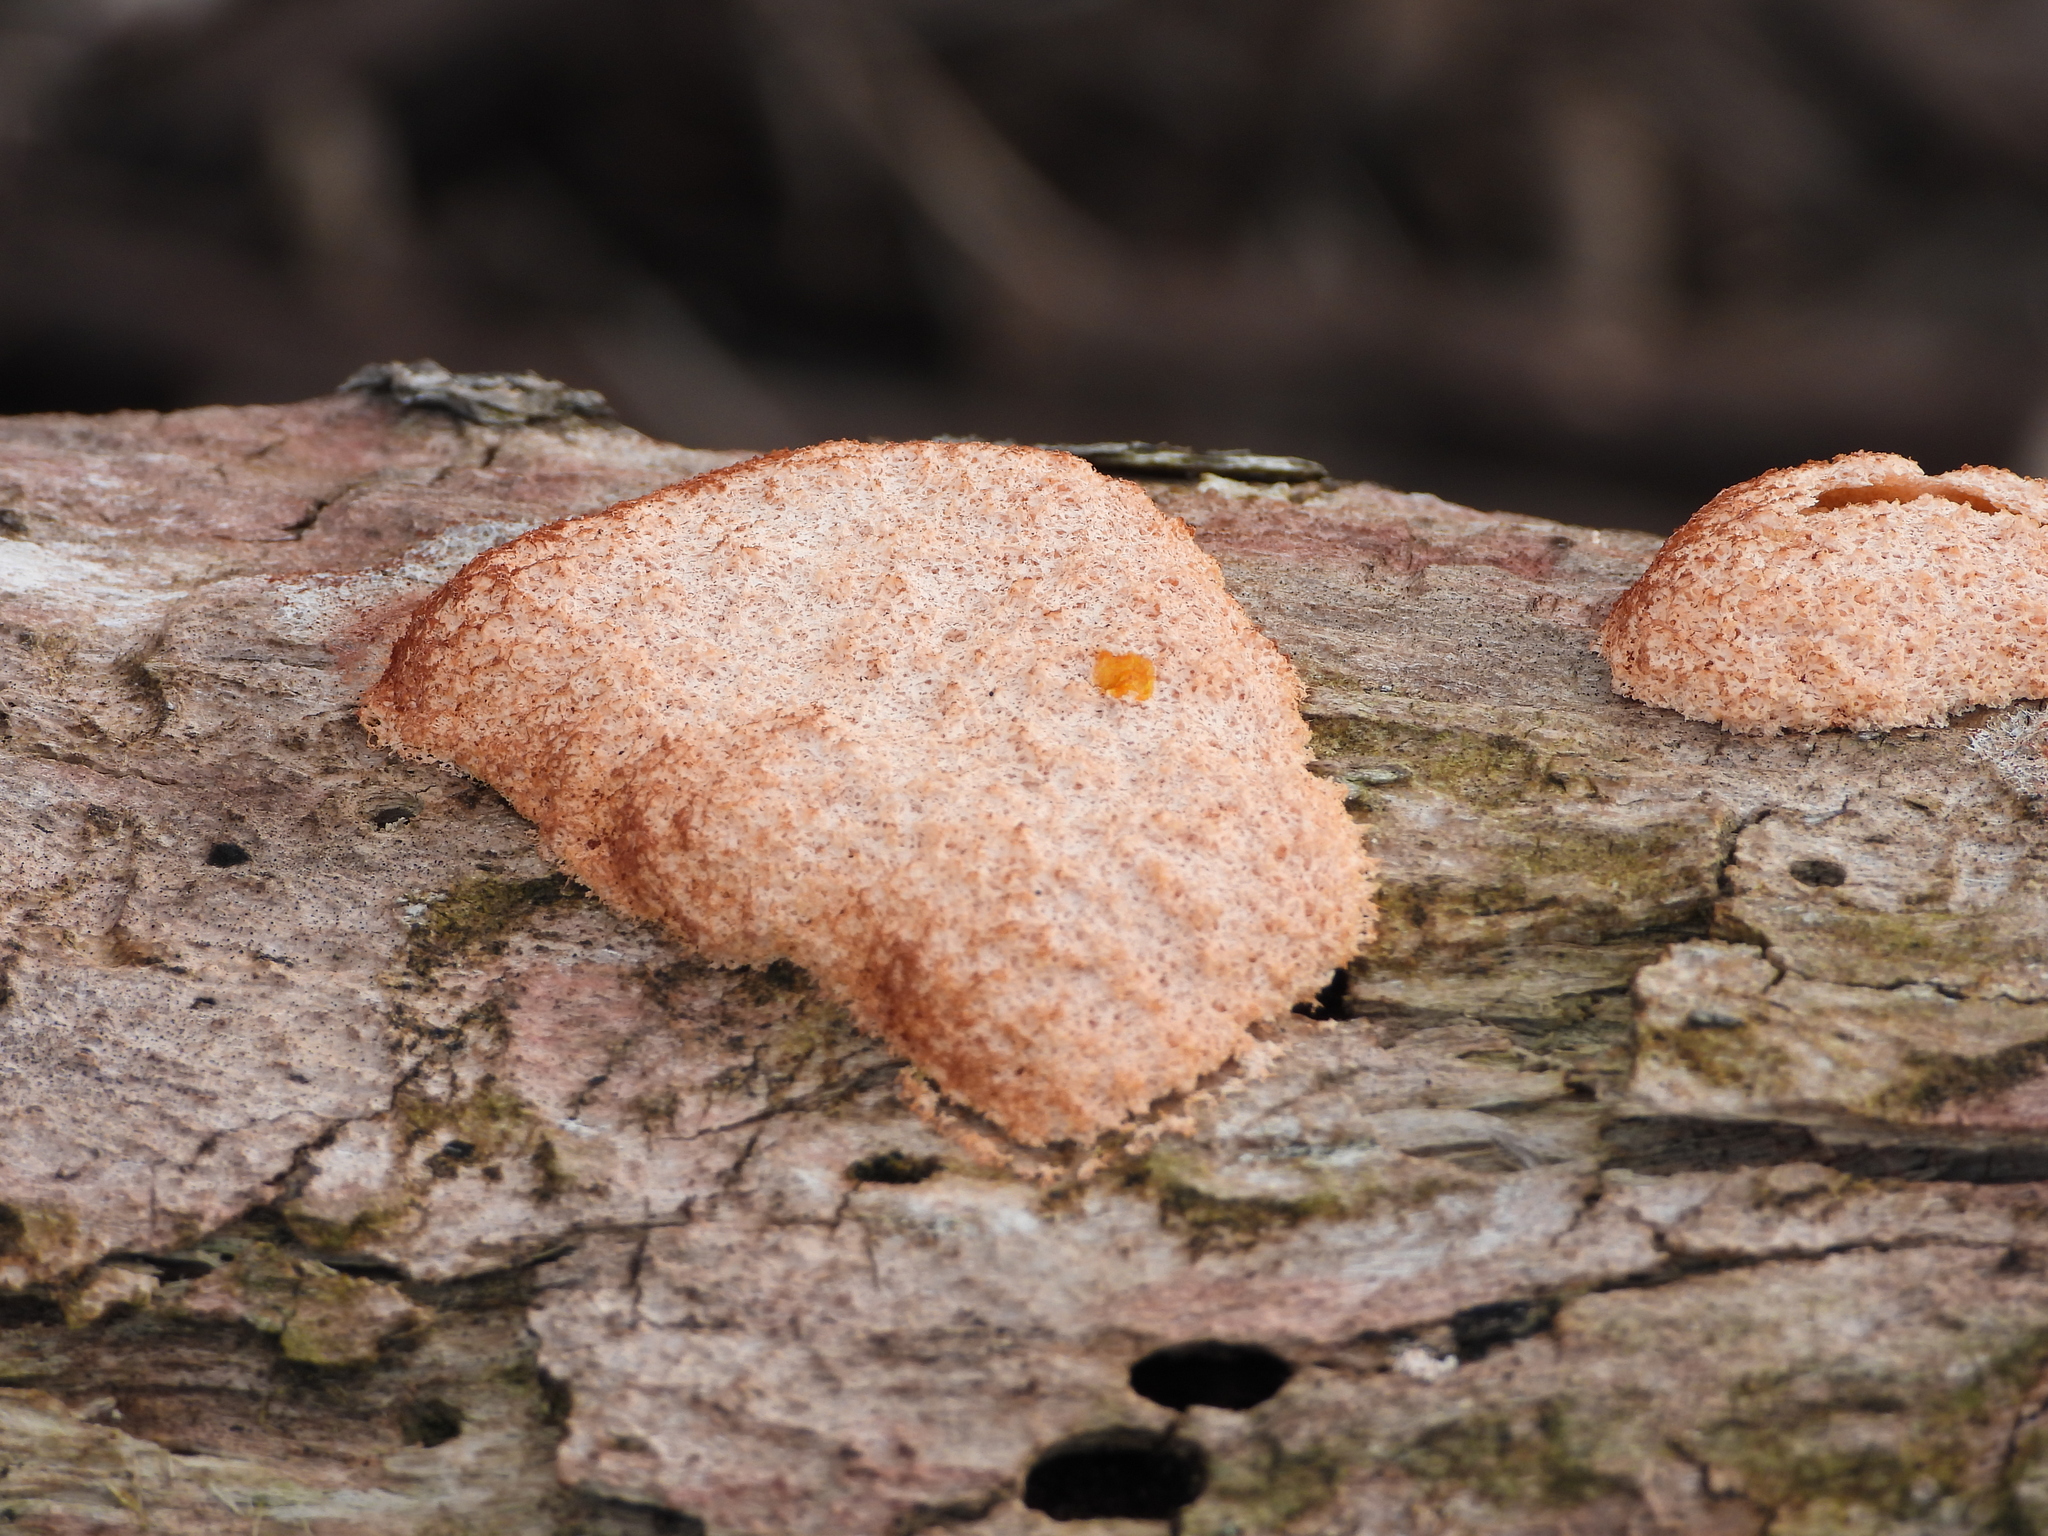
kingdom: Protozoa
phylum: Mycetozoa
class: Myxomycetes
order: Physarales
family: Physaraceae
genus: Fuligo
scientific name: Fuligo septica
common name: Dog vomit slime mold
